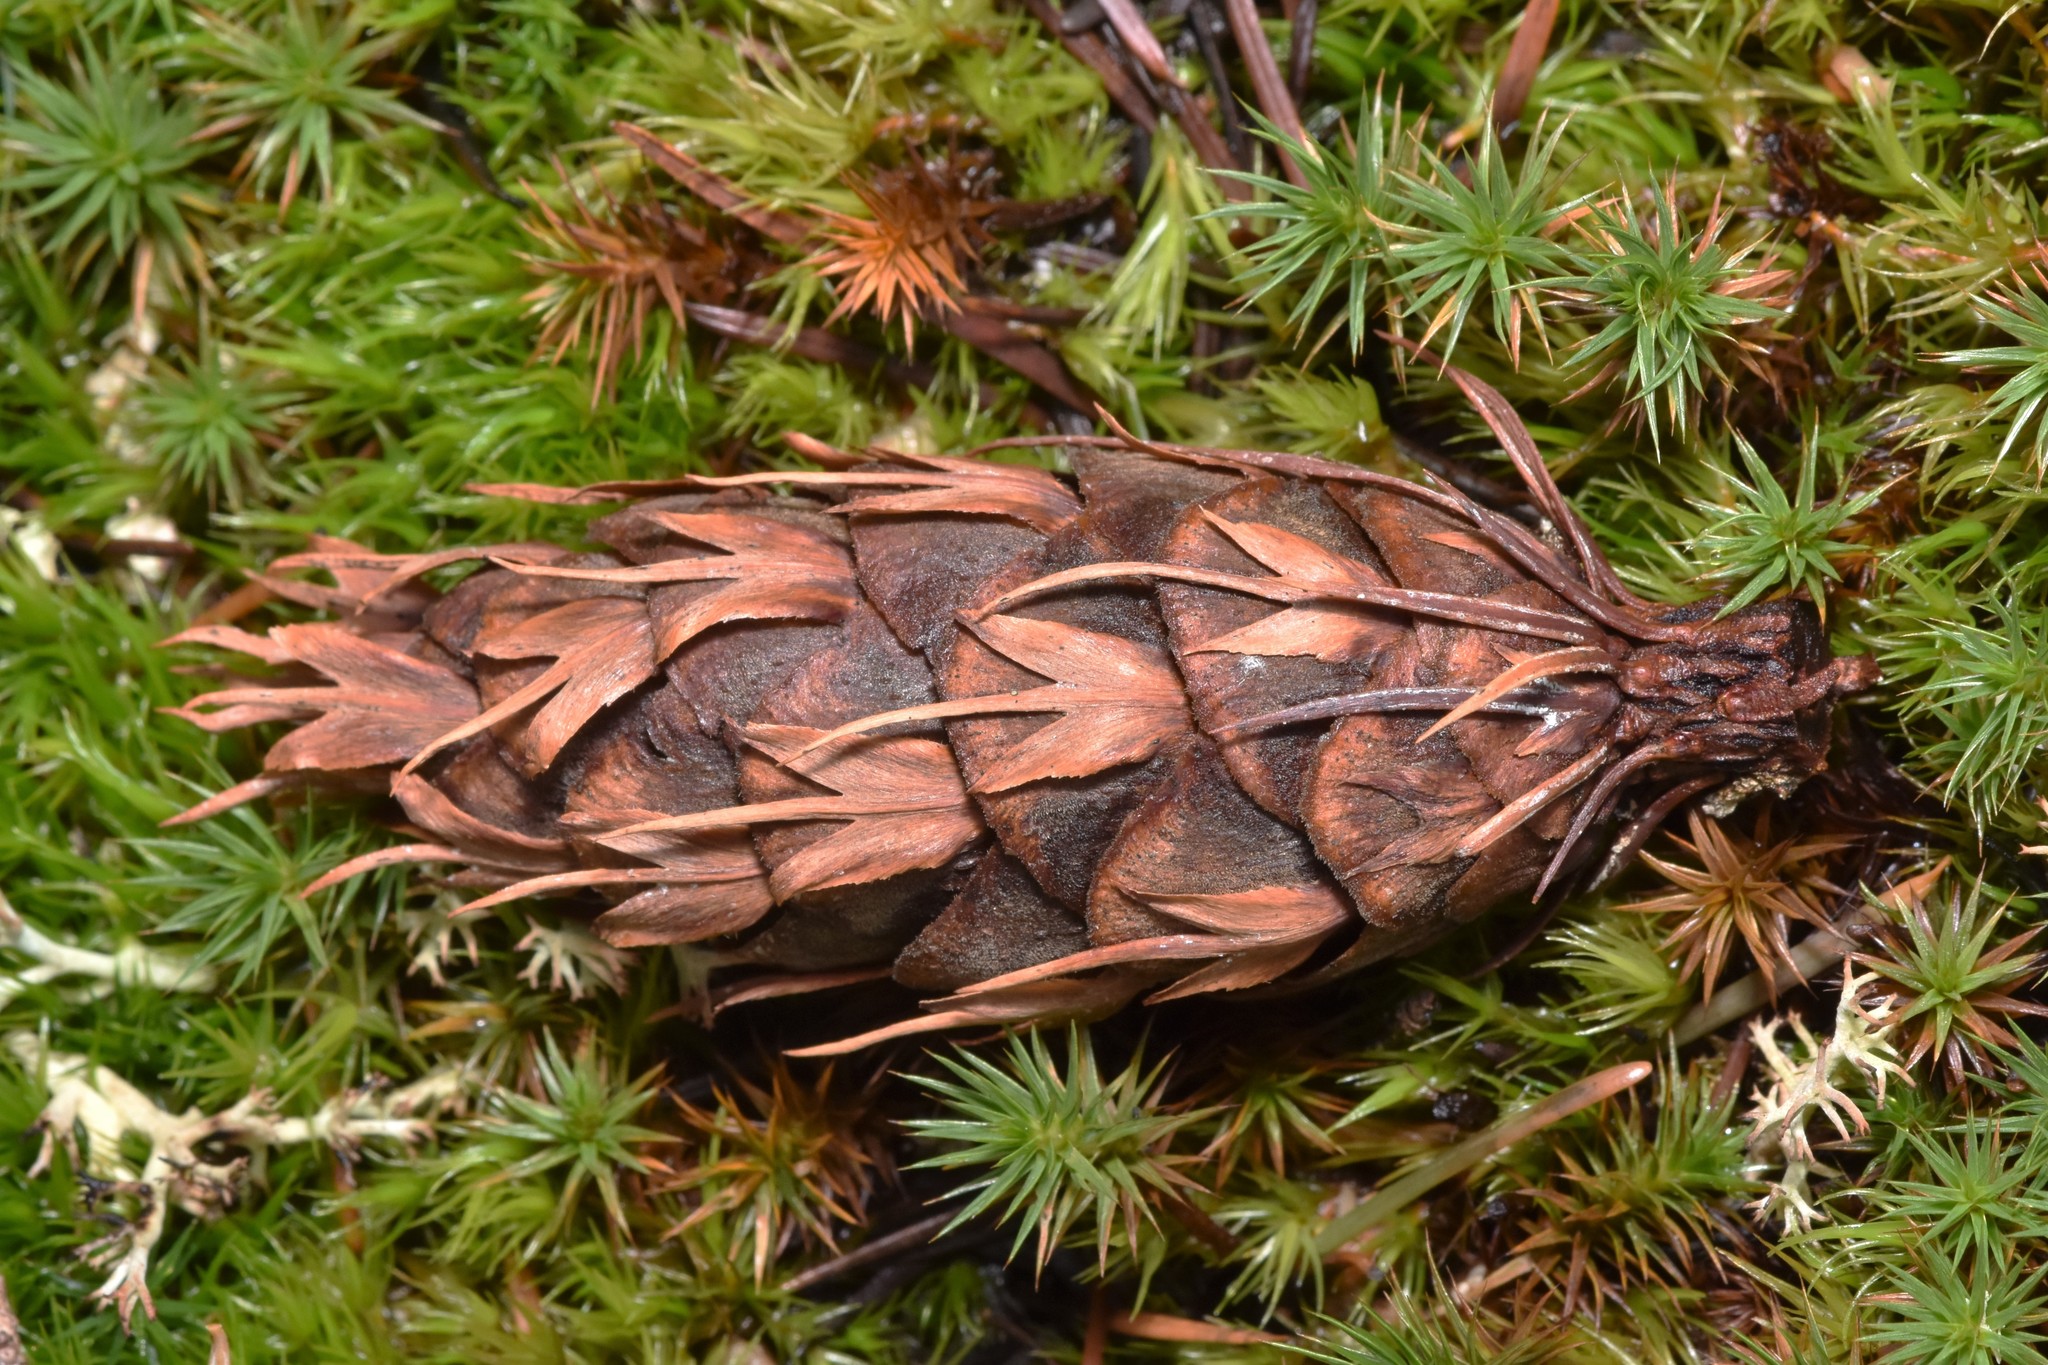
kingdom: Plantae
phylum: Tracheophyta
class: Pinopsida
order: Pinales
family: Pinaceae
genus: Pseudotsuga
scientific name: Pseudotsuga menziesii
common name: Douglas fir
